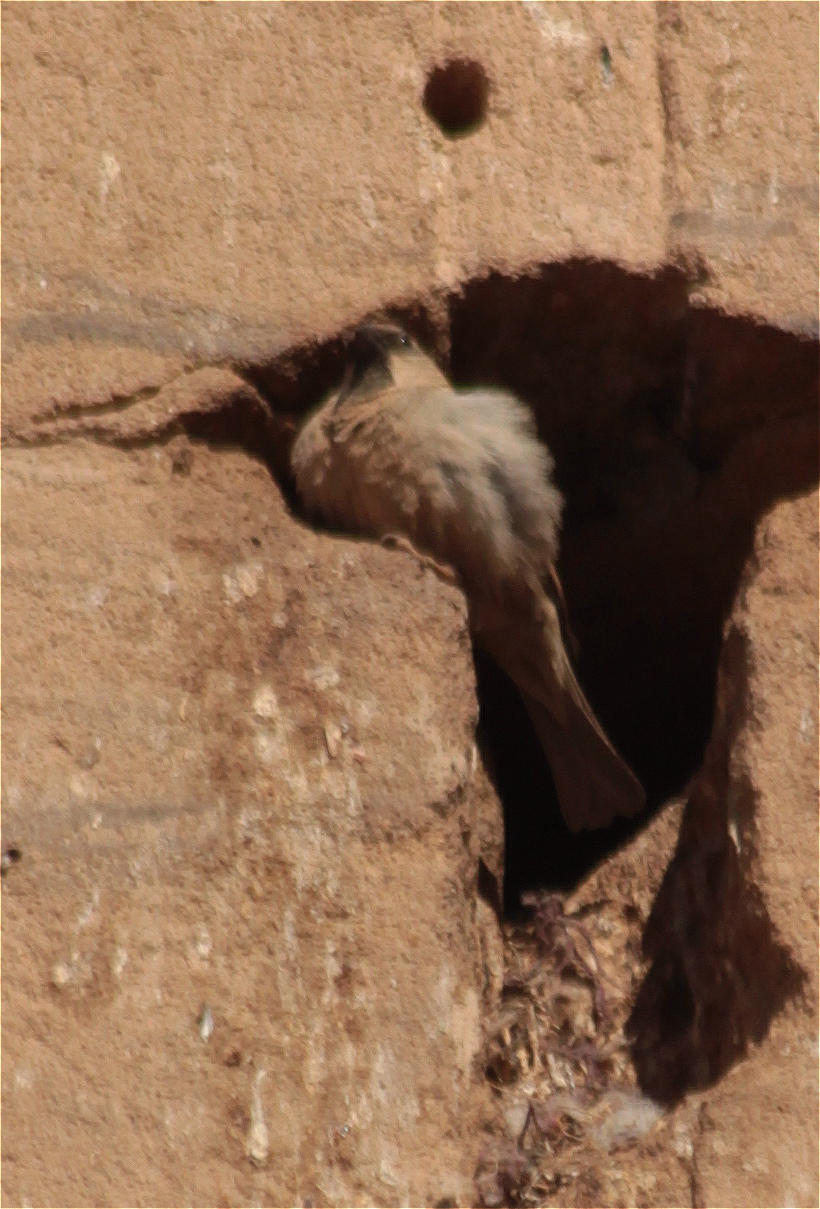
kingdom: Animalia
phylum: Chordata
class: Aves
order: Passeriformes
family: Passeridae
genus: Passer
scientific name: Passer domesticus
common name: House sparrow
